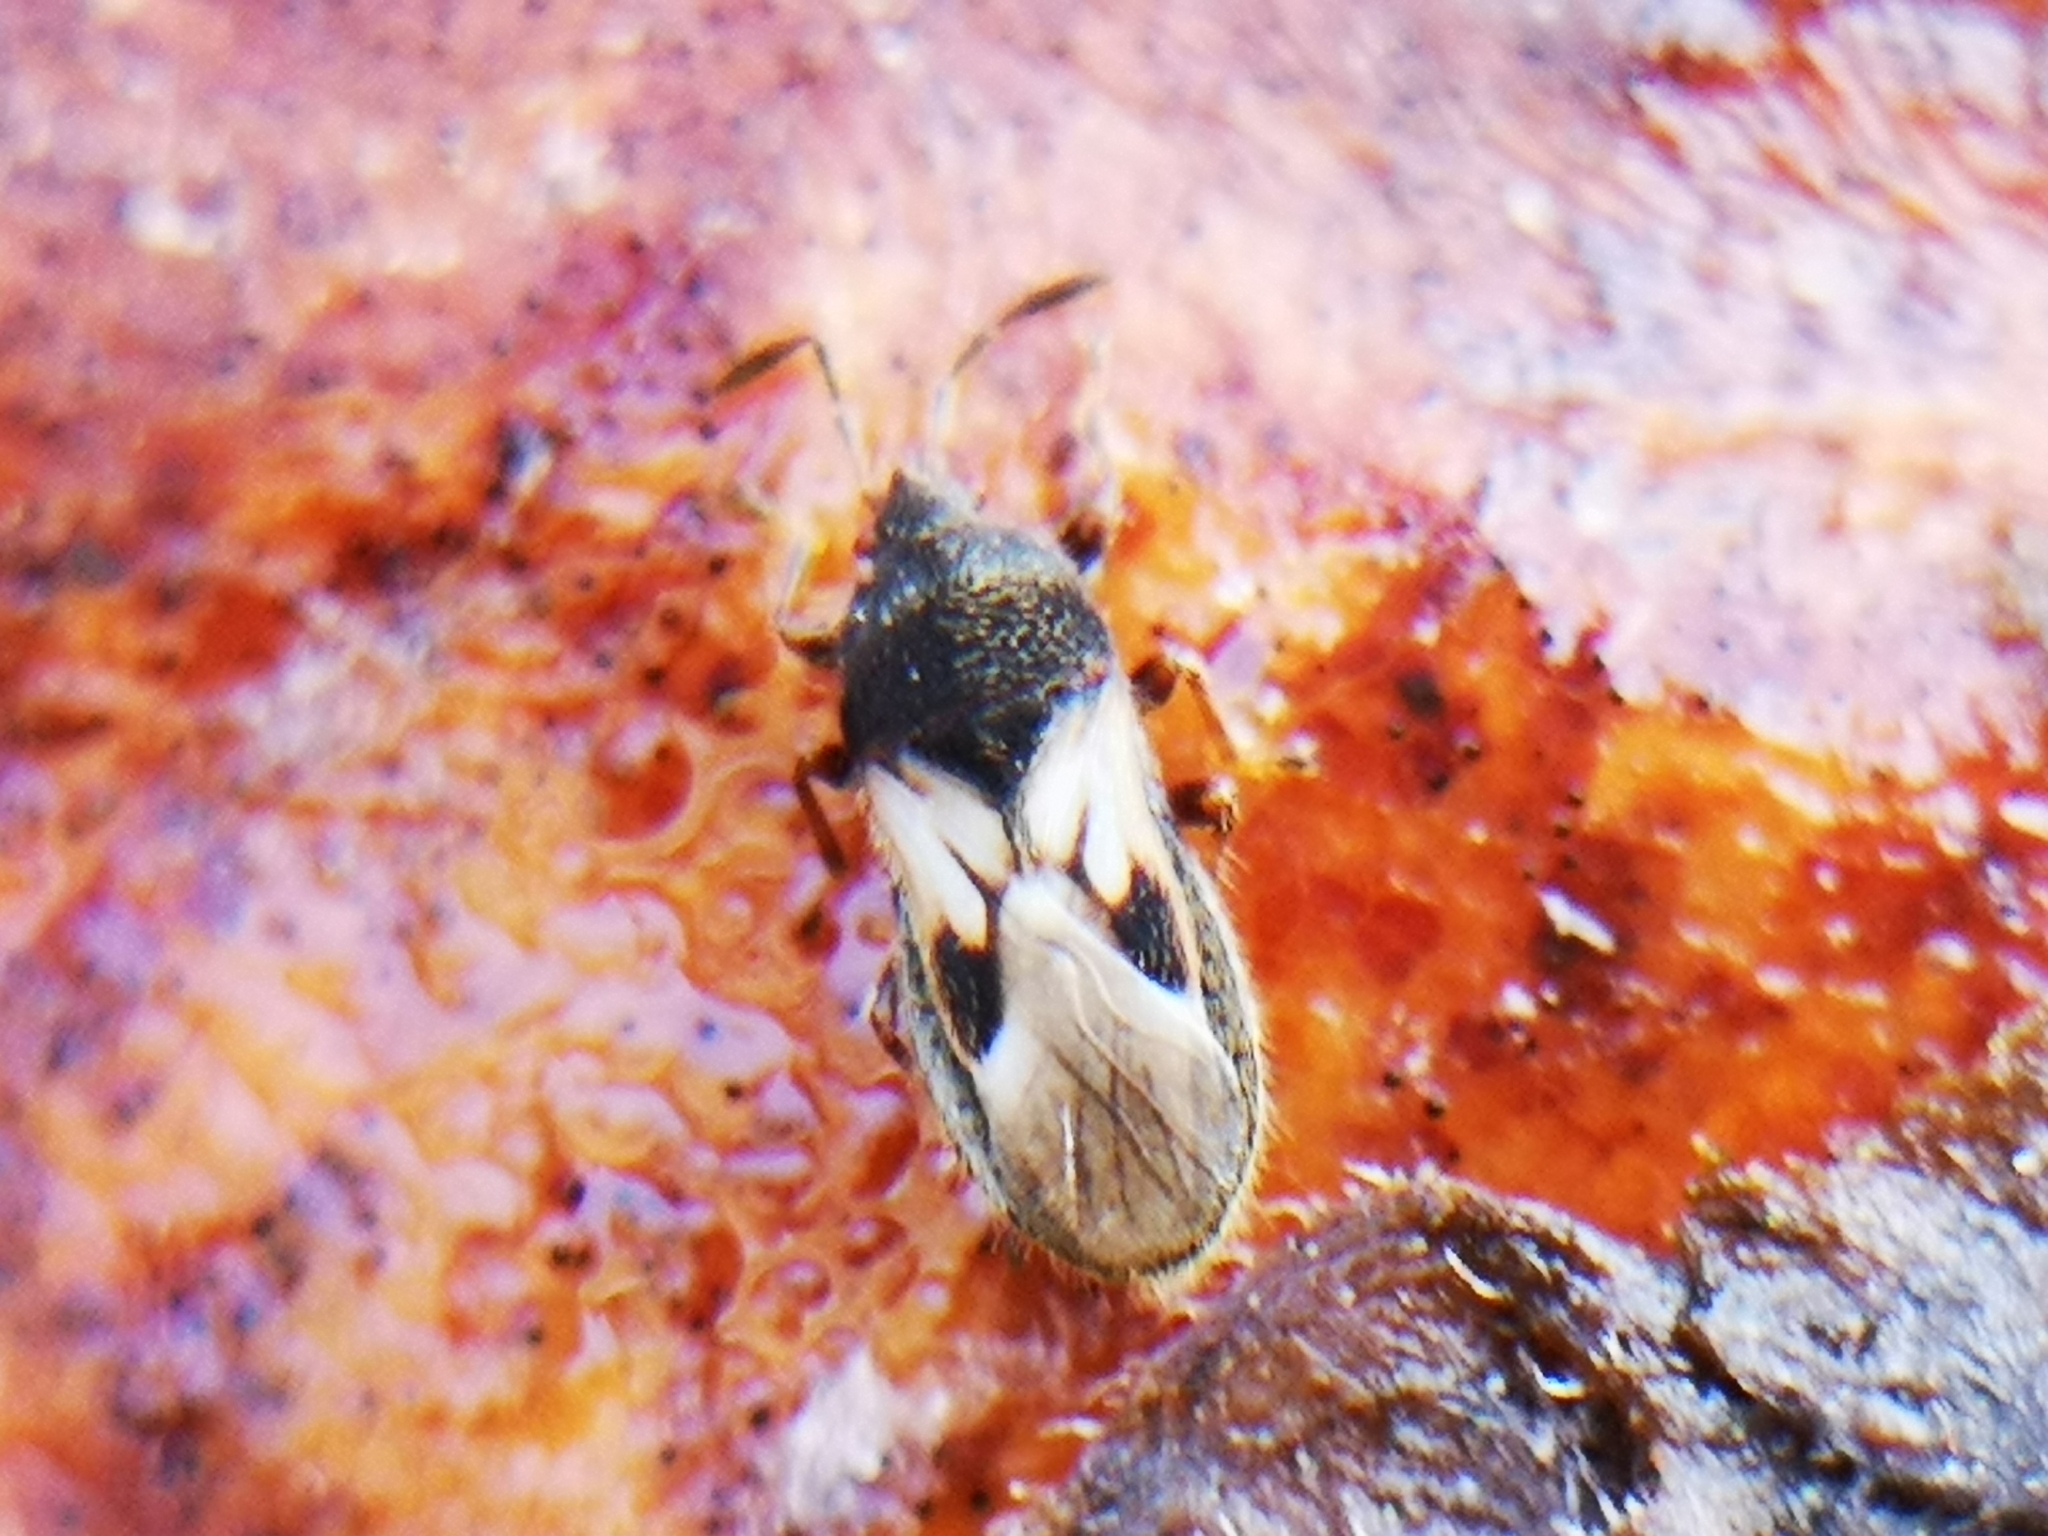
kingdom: Animalia
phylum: Arthropoda
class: Insecta
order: Hemiptera
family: Blissidae
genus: Blissus
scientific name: Blissus leucopterus
